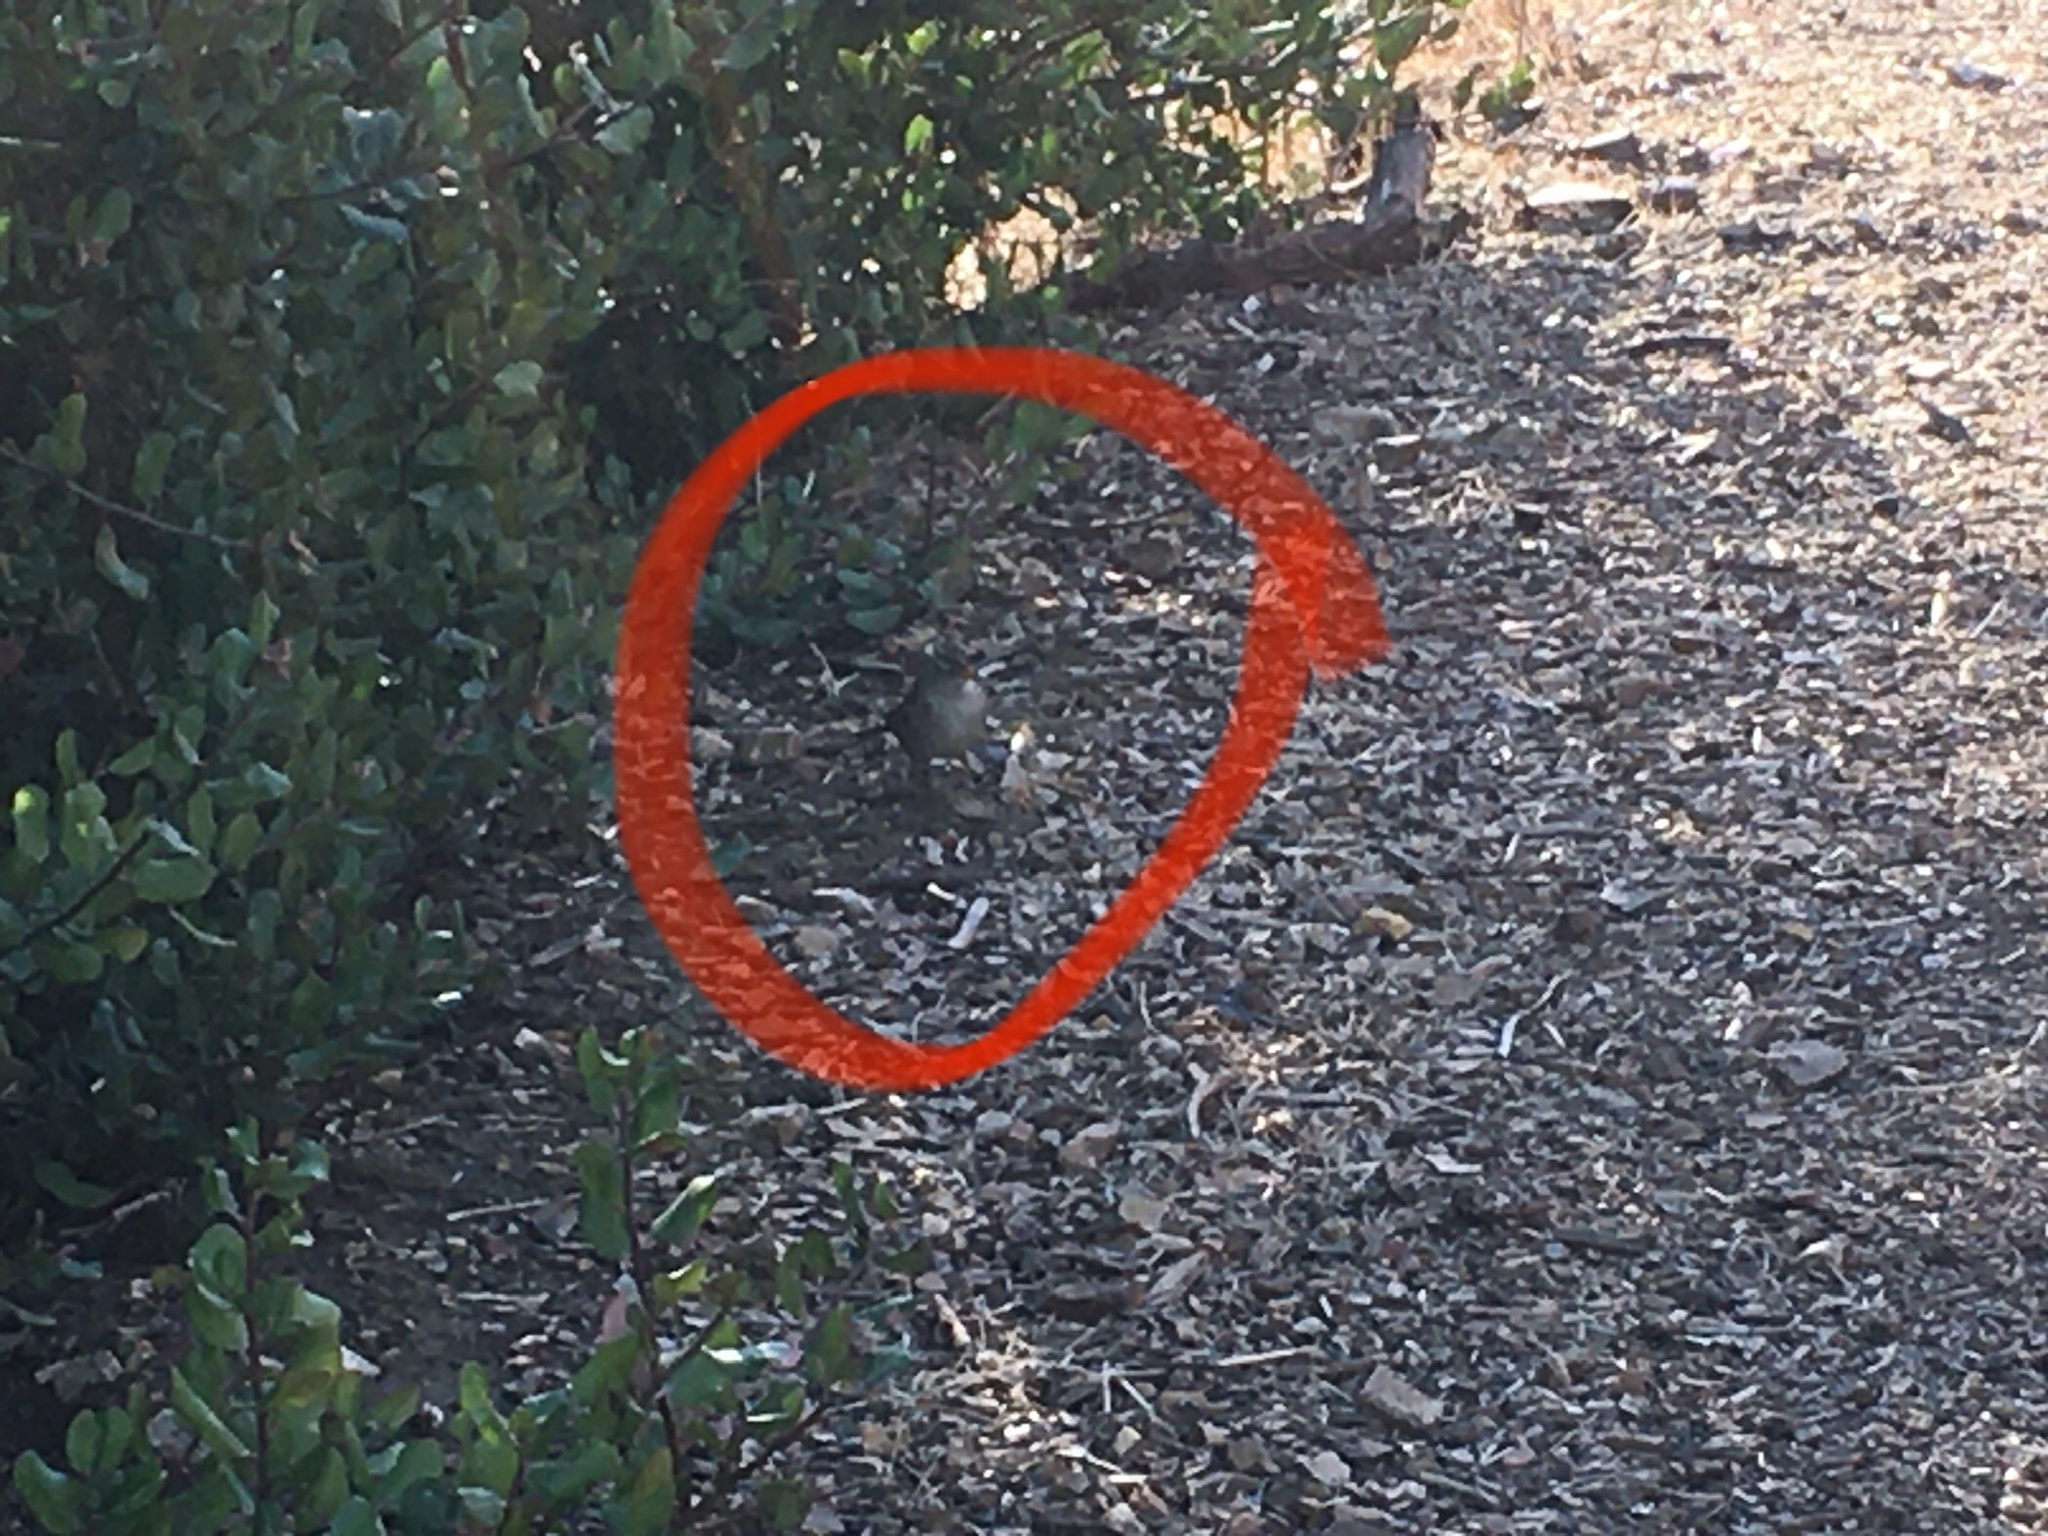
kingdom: Animalia
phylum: Chordata
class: Aves
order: Passeriformes
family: Passerellidae
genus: Zonotrichia
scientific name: Zonotrichia leucophrys
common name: White-crowned sparrow
